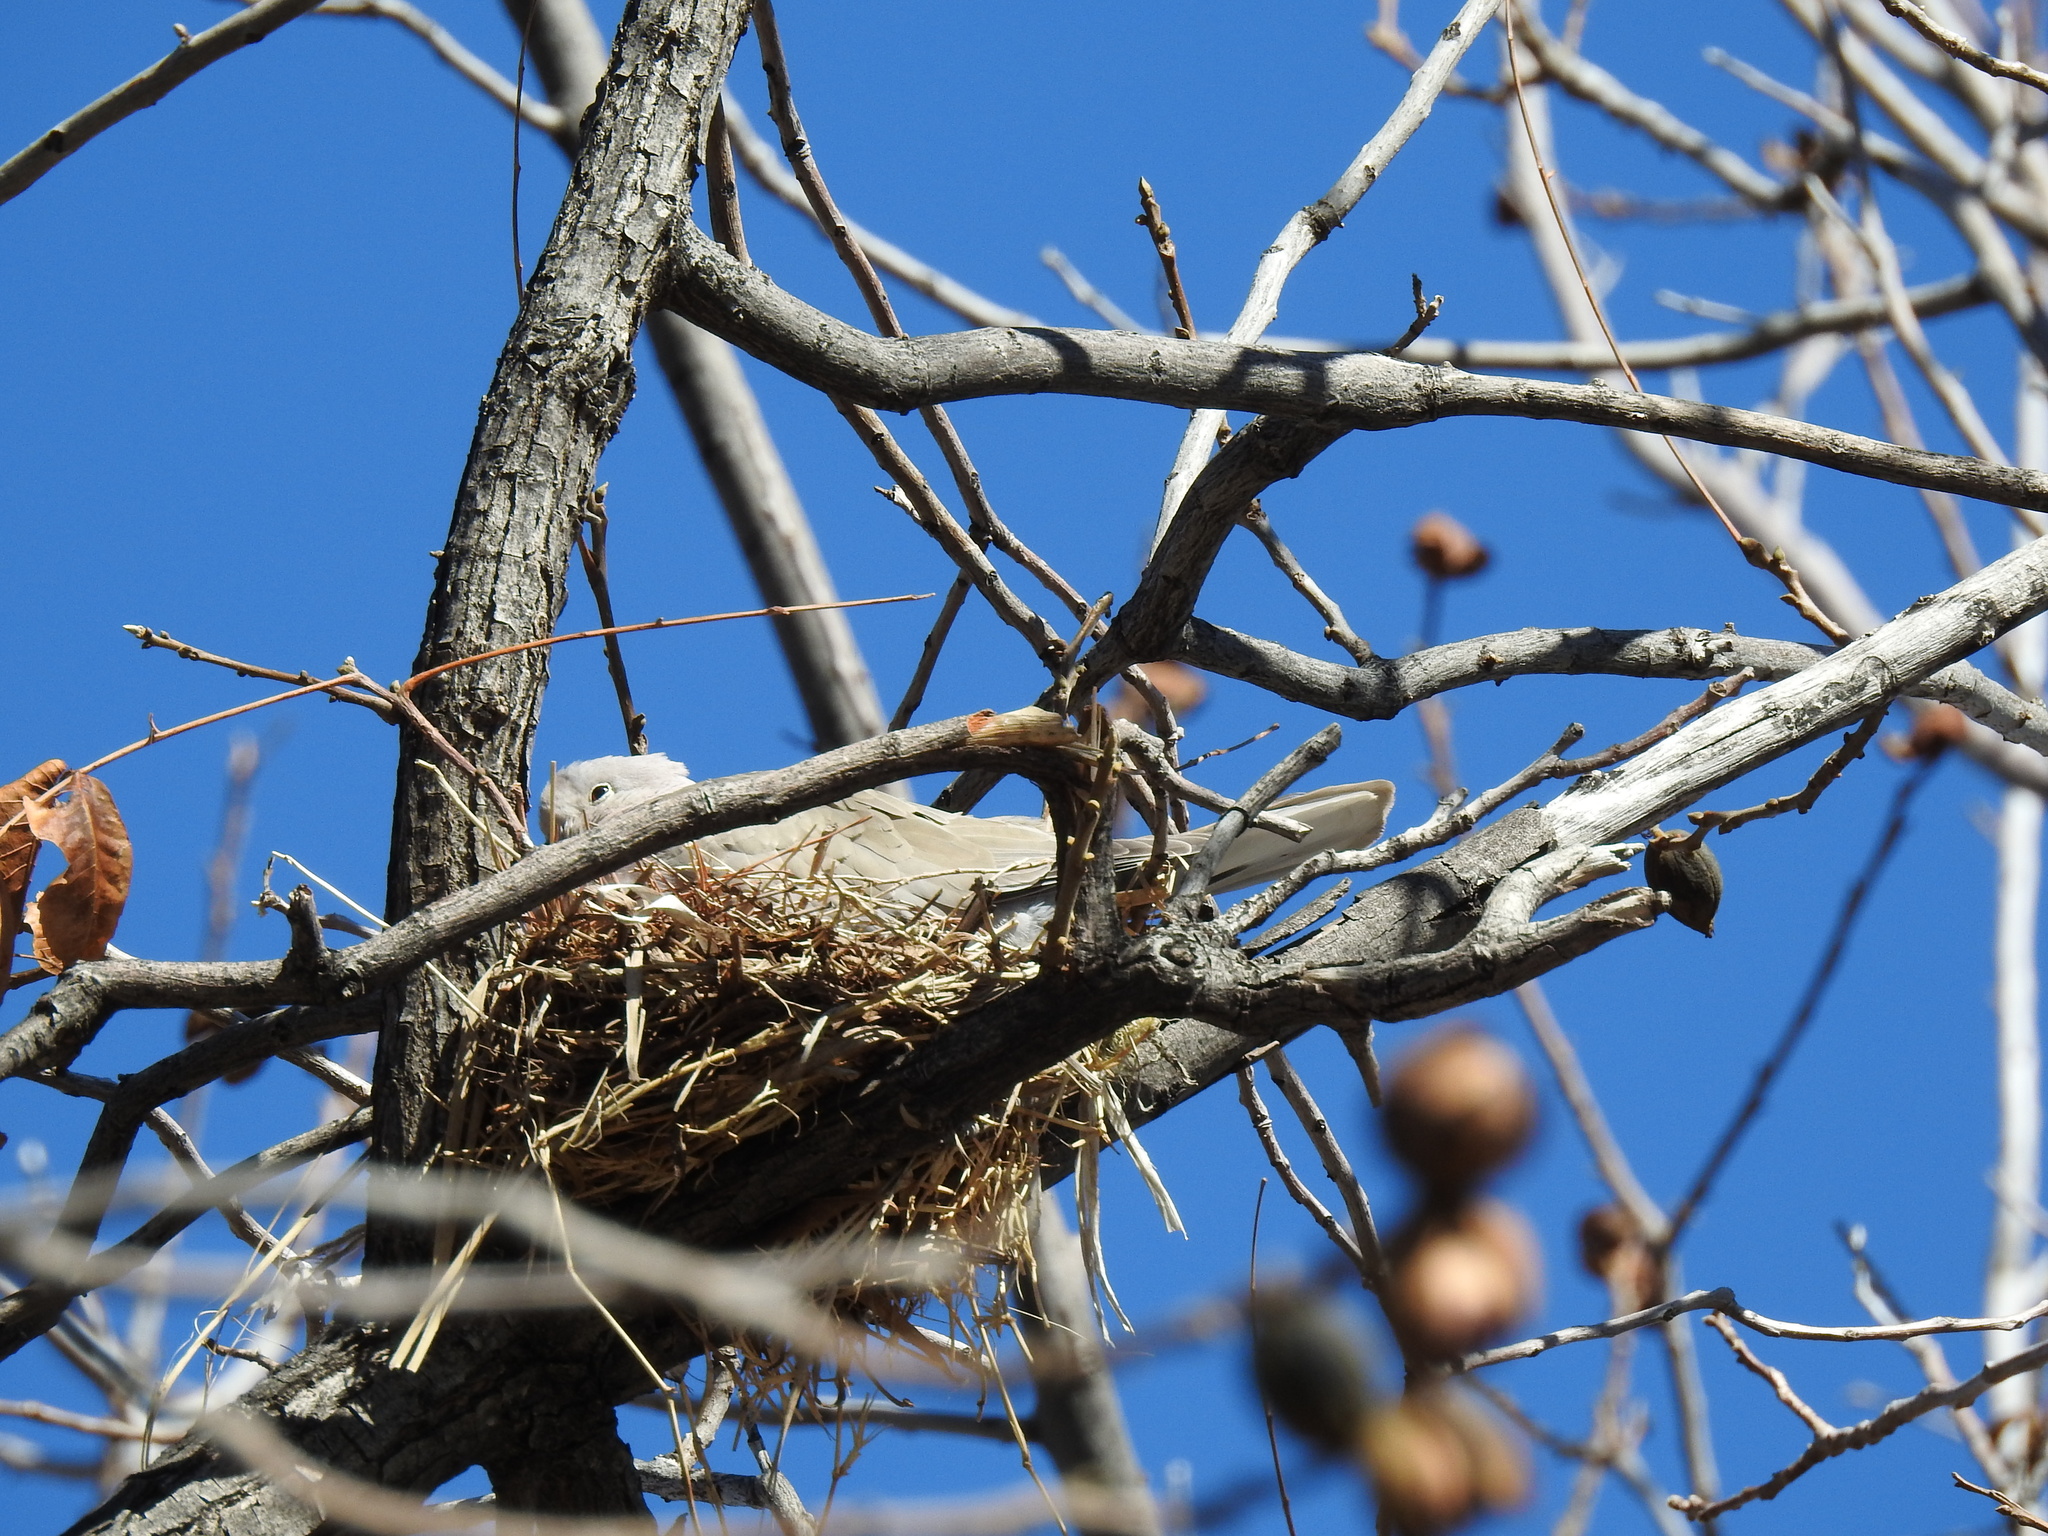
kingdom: Animalia
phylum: Chordata
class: Aves
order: Columbiformes
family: Columbidae
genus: Streptopelia
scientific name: Streptopelia decaocto
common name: Eurasian collared dove
